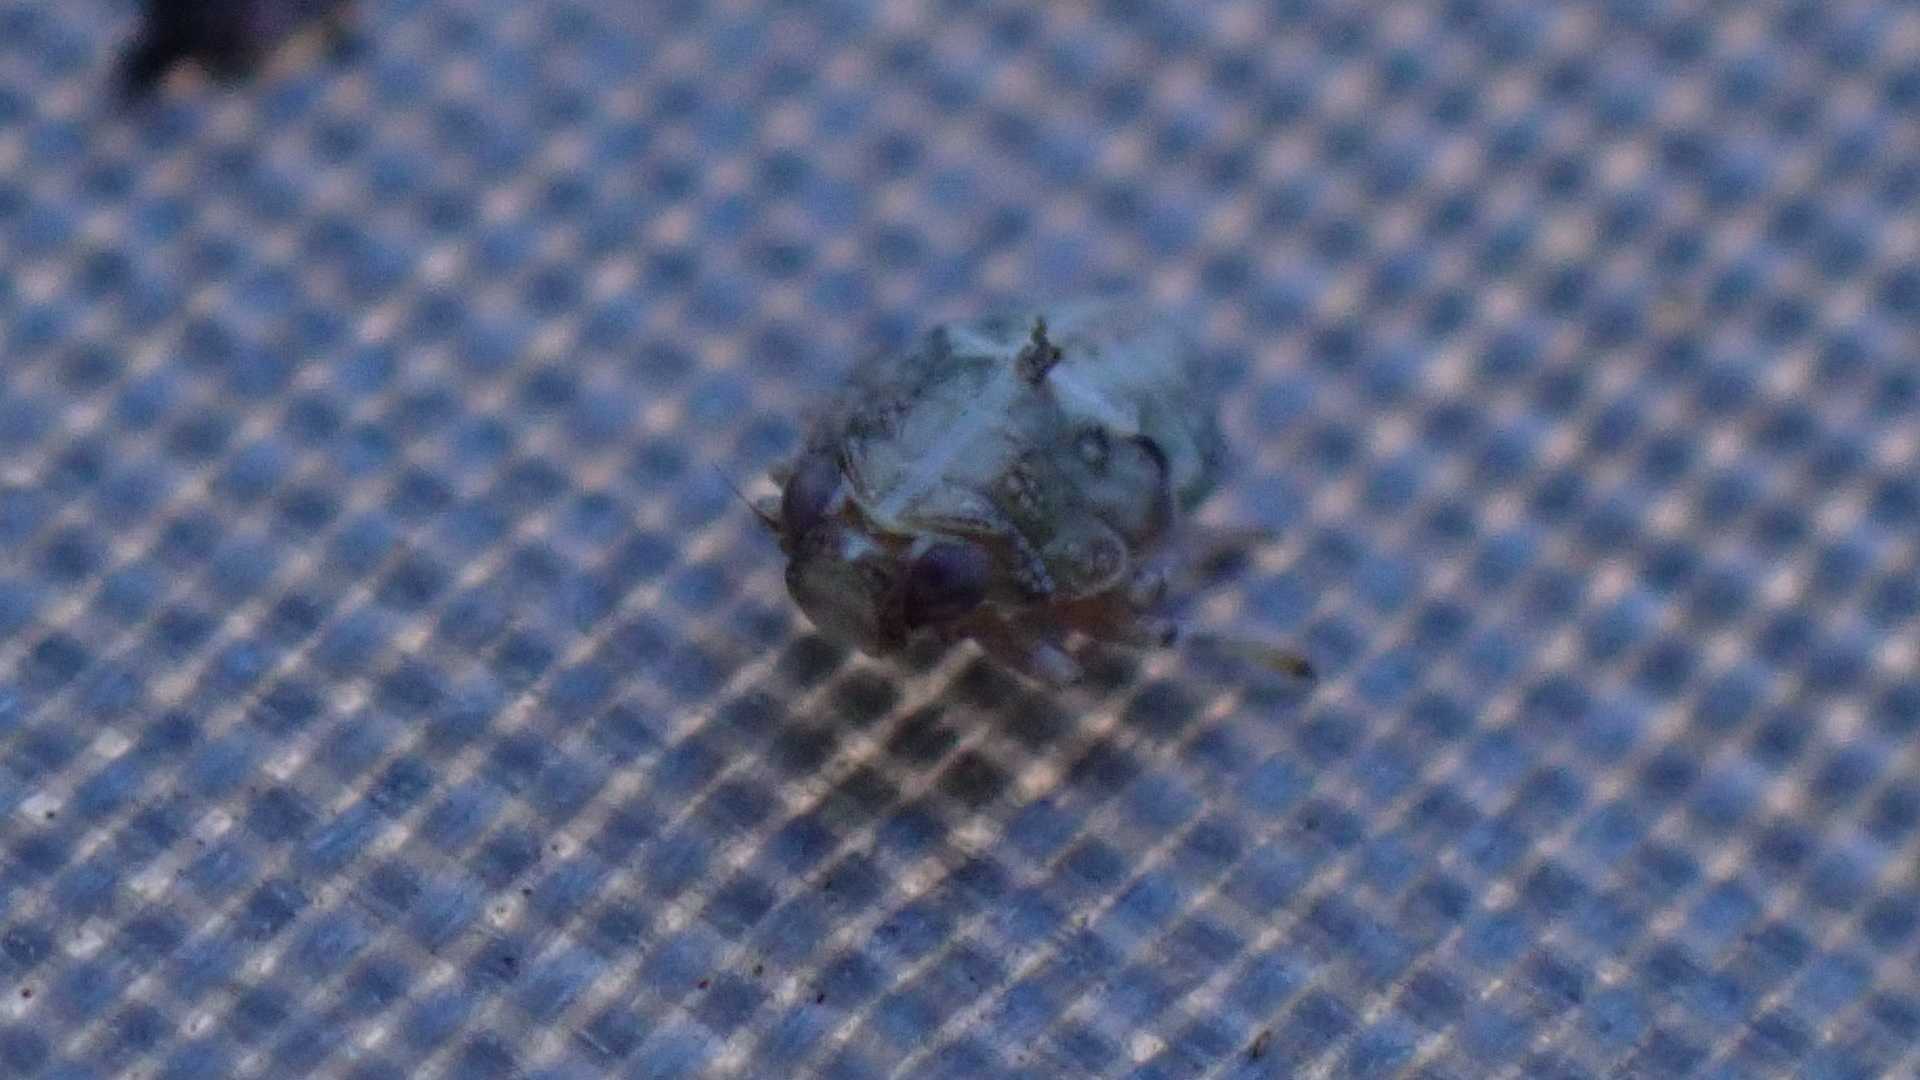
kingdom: Animalia
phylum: Arthropoda
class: Insecta
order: Hemiptera
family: Issidae
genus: Issus
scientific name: Issus coleoptratus
